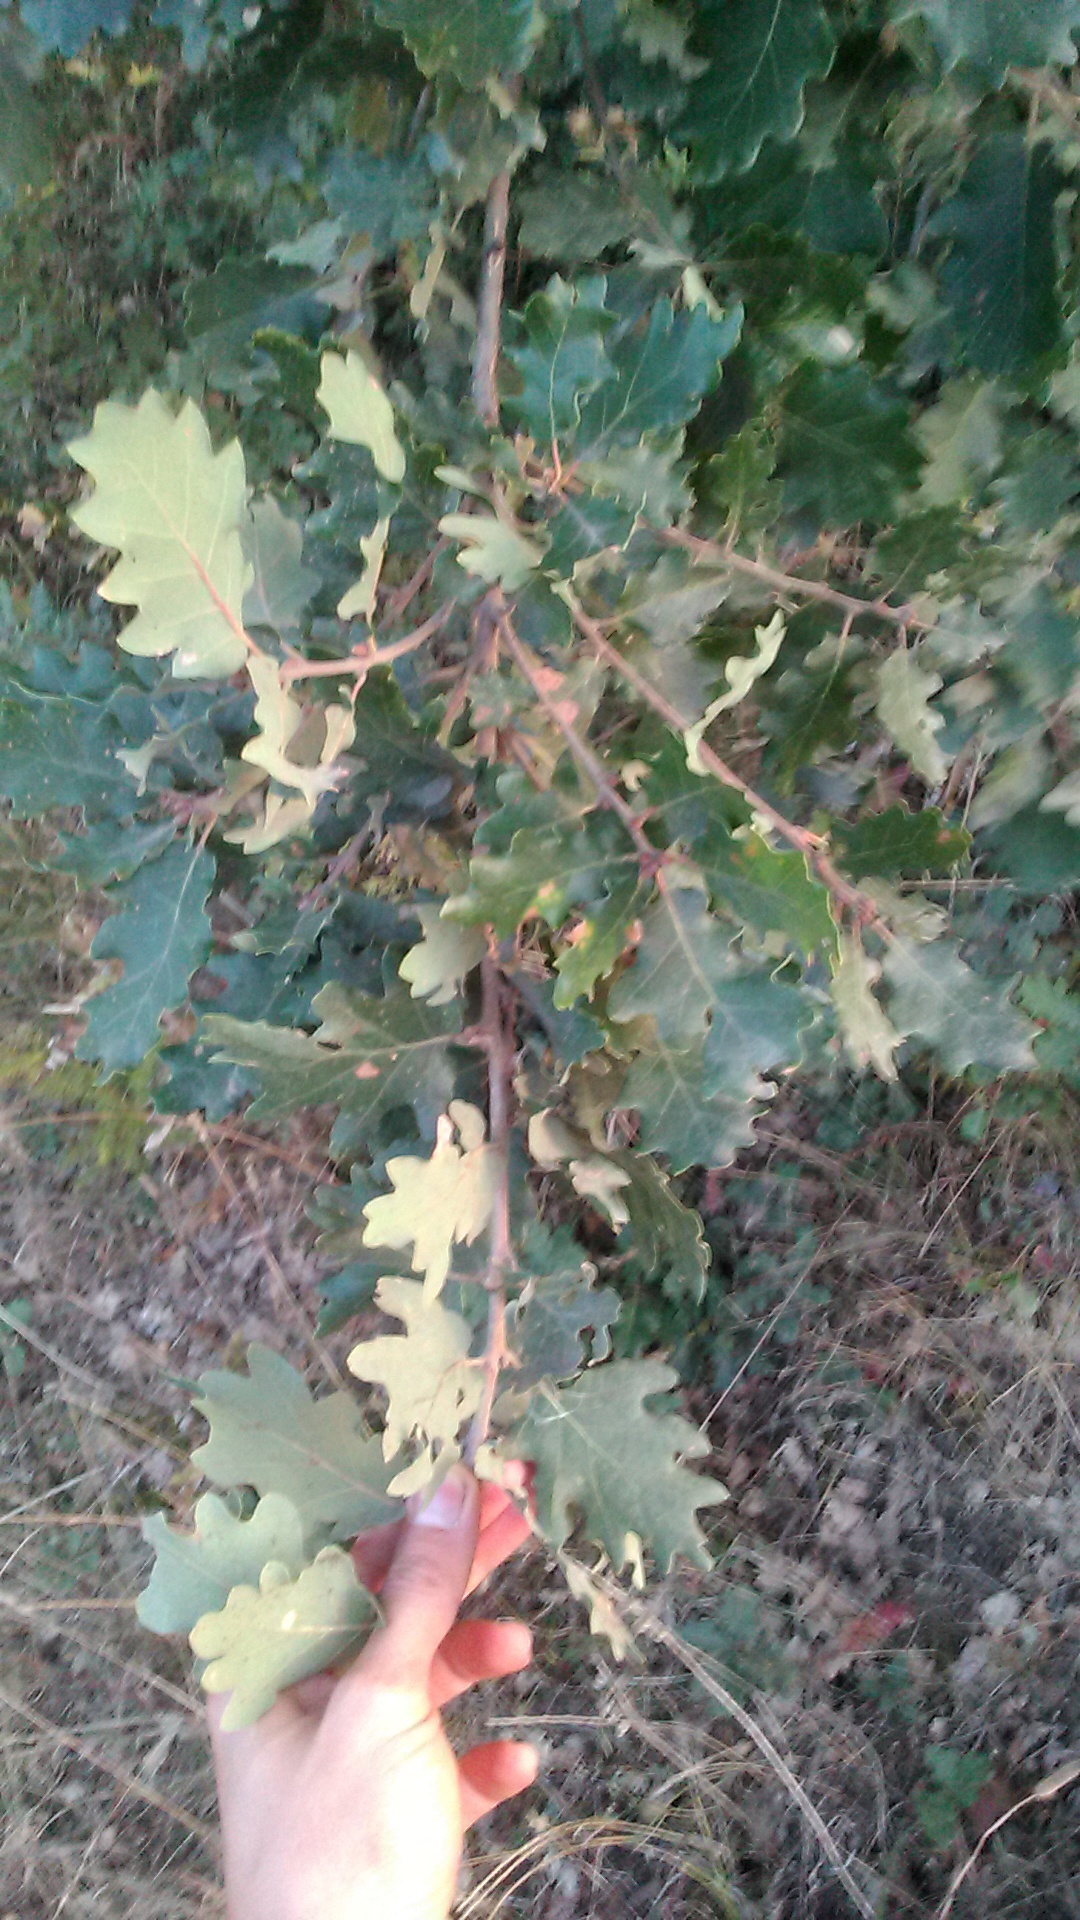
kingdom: Plantae
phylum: Tracheophyta
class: Magnoliopsida
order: Fagales
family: Fagaceae
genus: Quercus
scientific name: Quercus pubescens
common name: Downy oak
